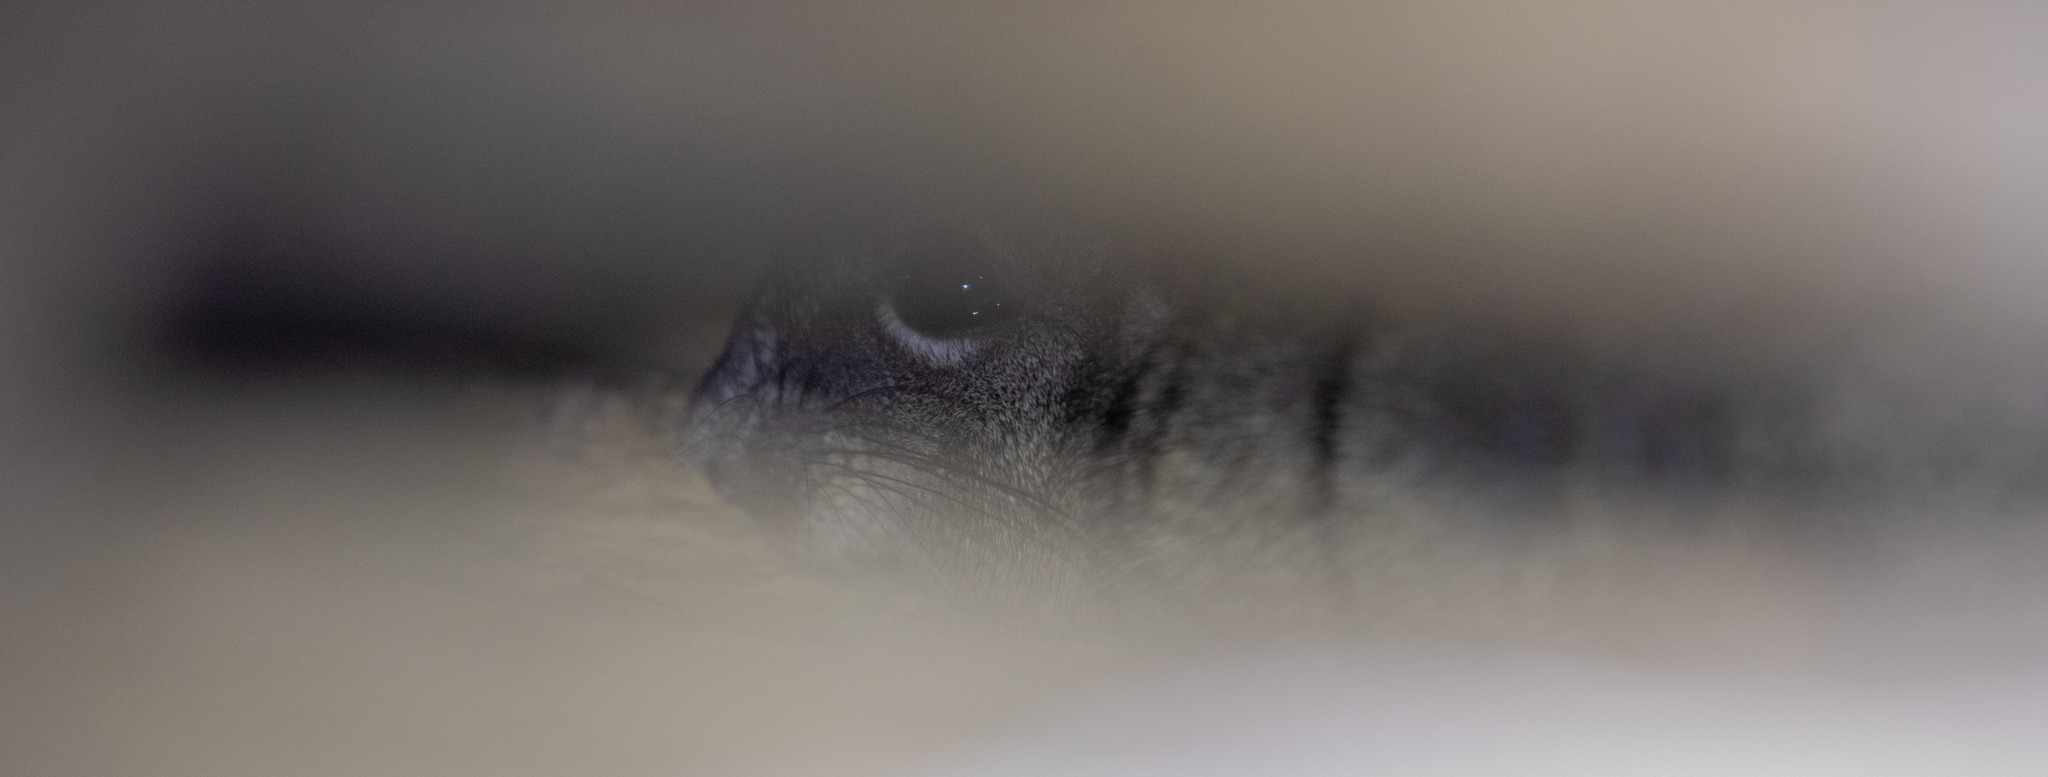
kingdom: Animalia
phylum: Chordata
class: Mammalia
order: Rodentia
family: Echimyidae
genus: Thrichomys
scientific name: Thrichomys laurentius
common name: Sao lourenco punare
